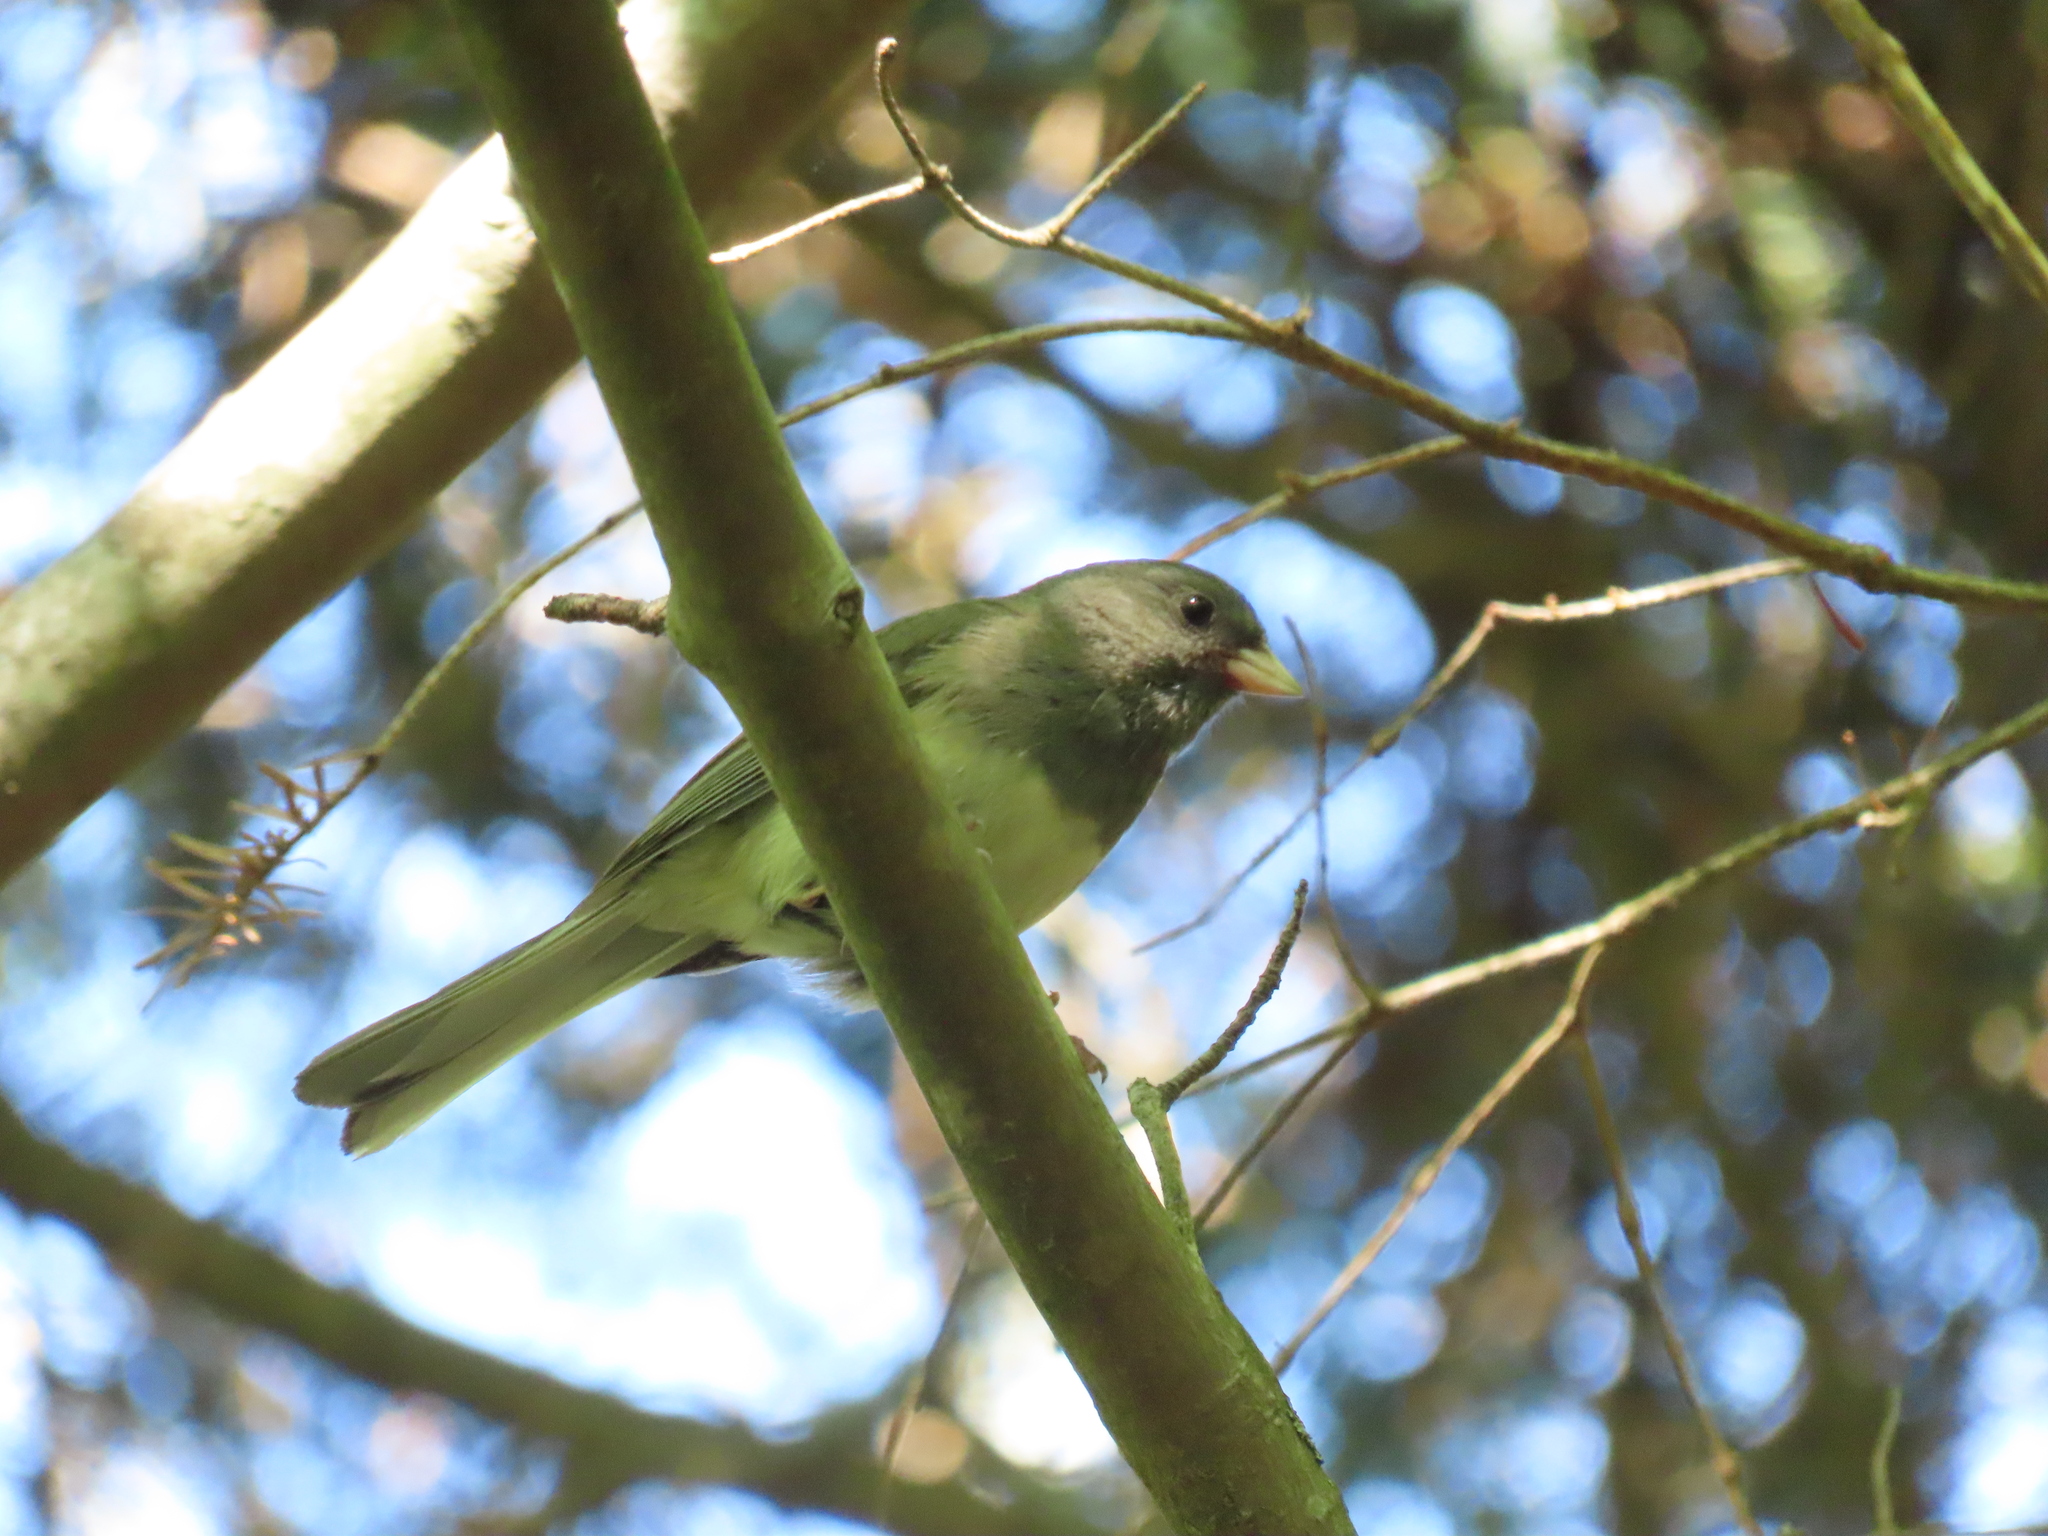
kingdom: Animalia
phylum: Chordata
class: Aves
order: Passeriformes
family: Passerellidae
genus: Junco
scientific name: Junco hyemalis
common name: Dark-eyed junco
